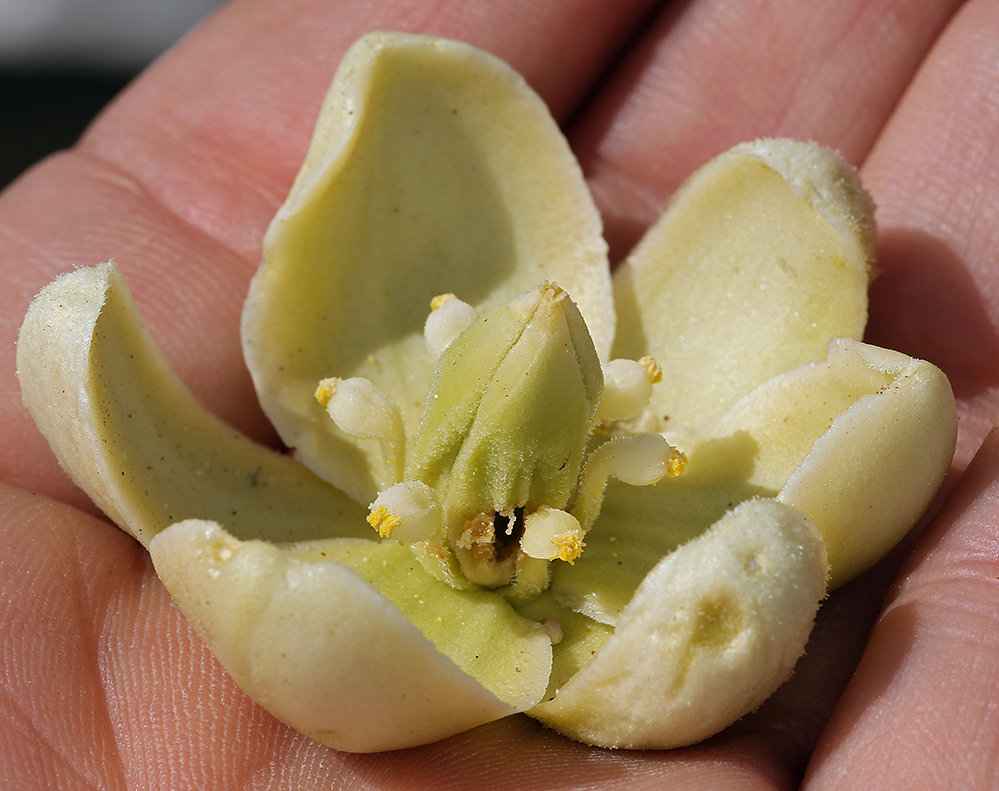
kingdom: Plantae
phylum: Tracheophyta
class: Liliopsida
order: Asparagales
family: Asparagaceae
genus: Yucca
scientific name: Yucca brevifolia
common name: Joshua tree
